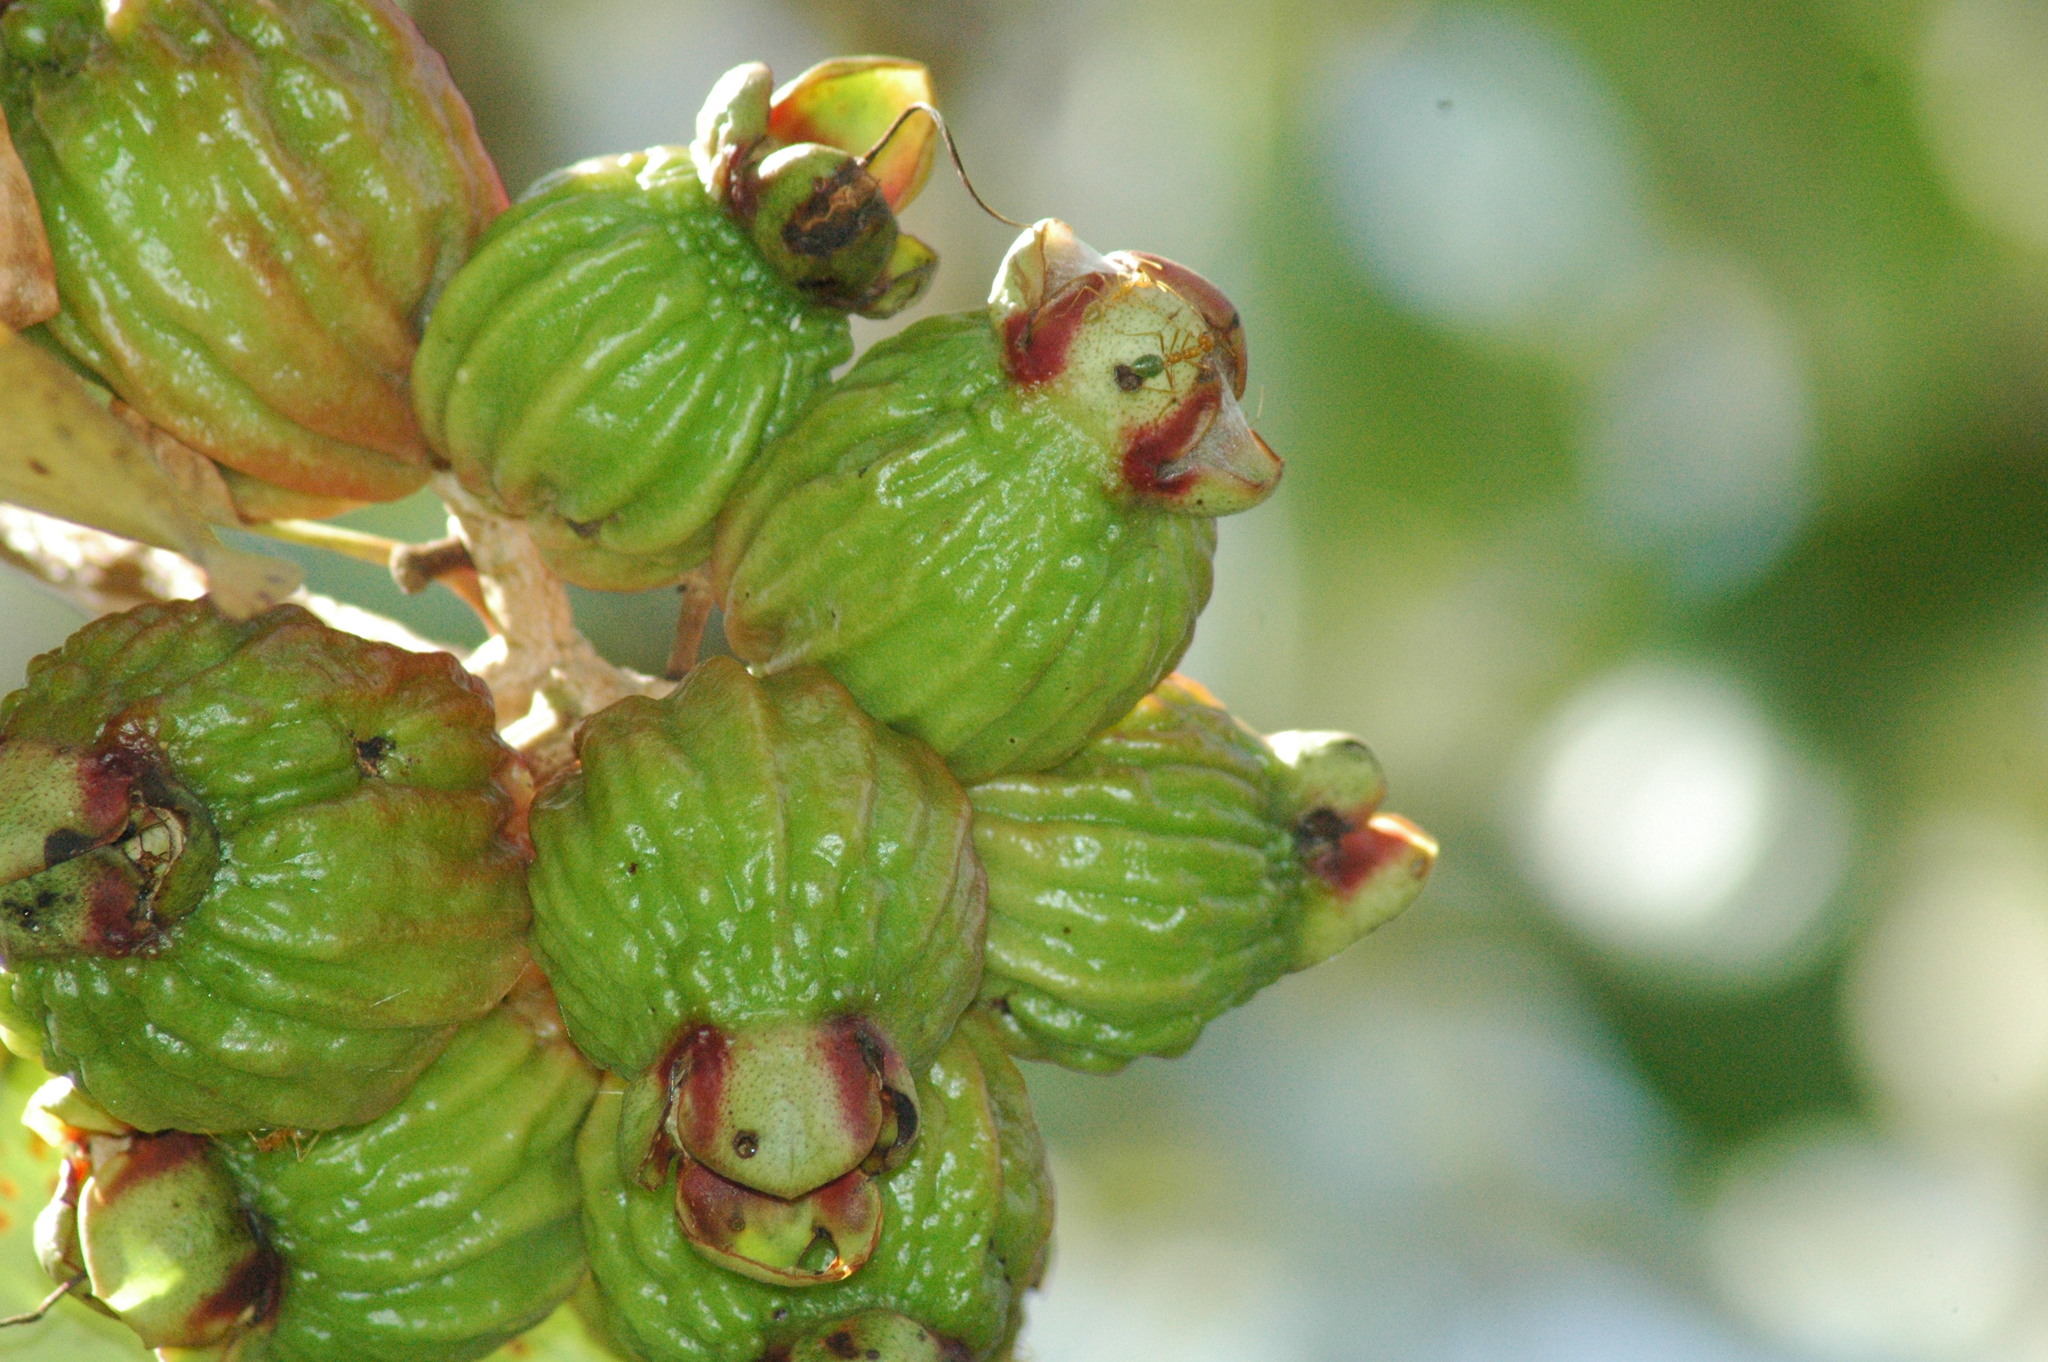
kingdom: Plantae
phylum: Tracheophyta
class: Magnoliopsida
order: Myrtales
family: Myrtaceae
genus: Syzygium
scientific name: Syzygium suborbiculare
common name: Red bush apple
